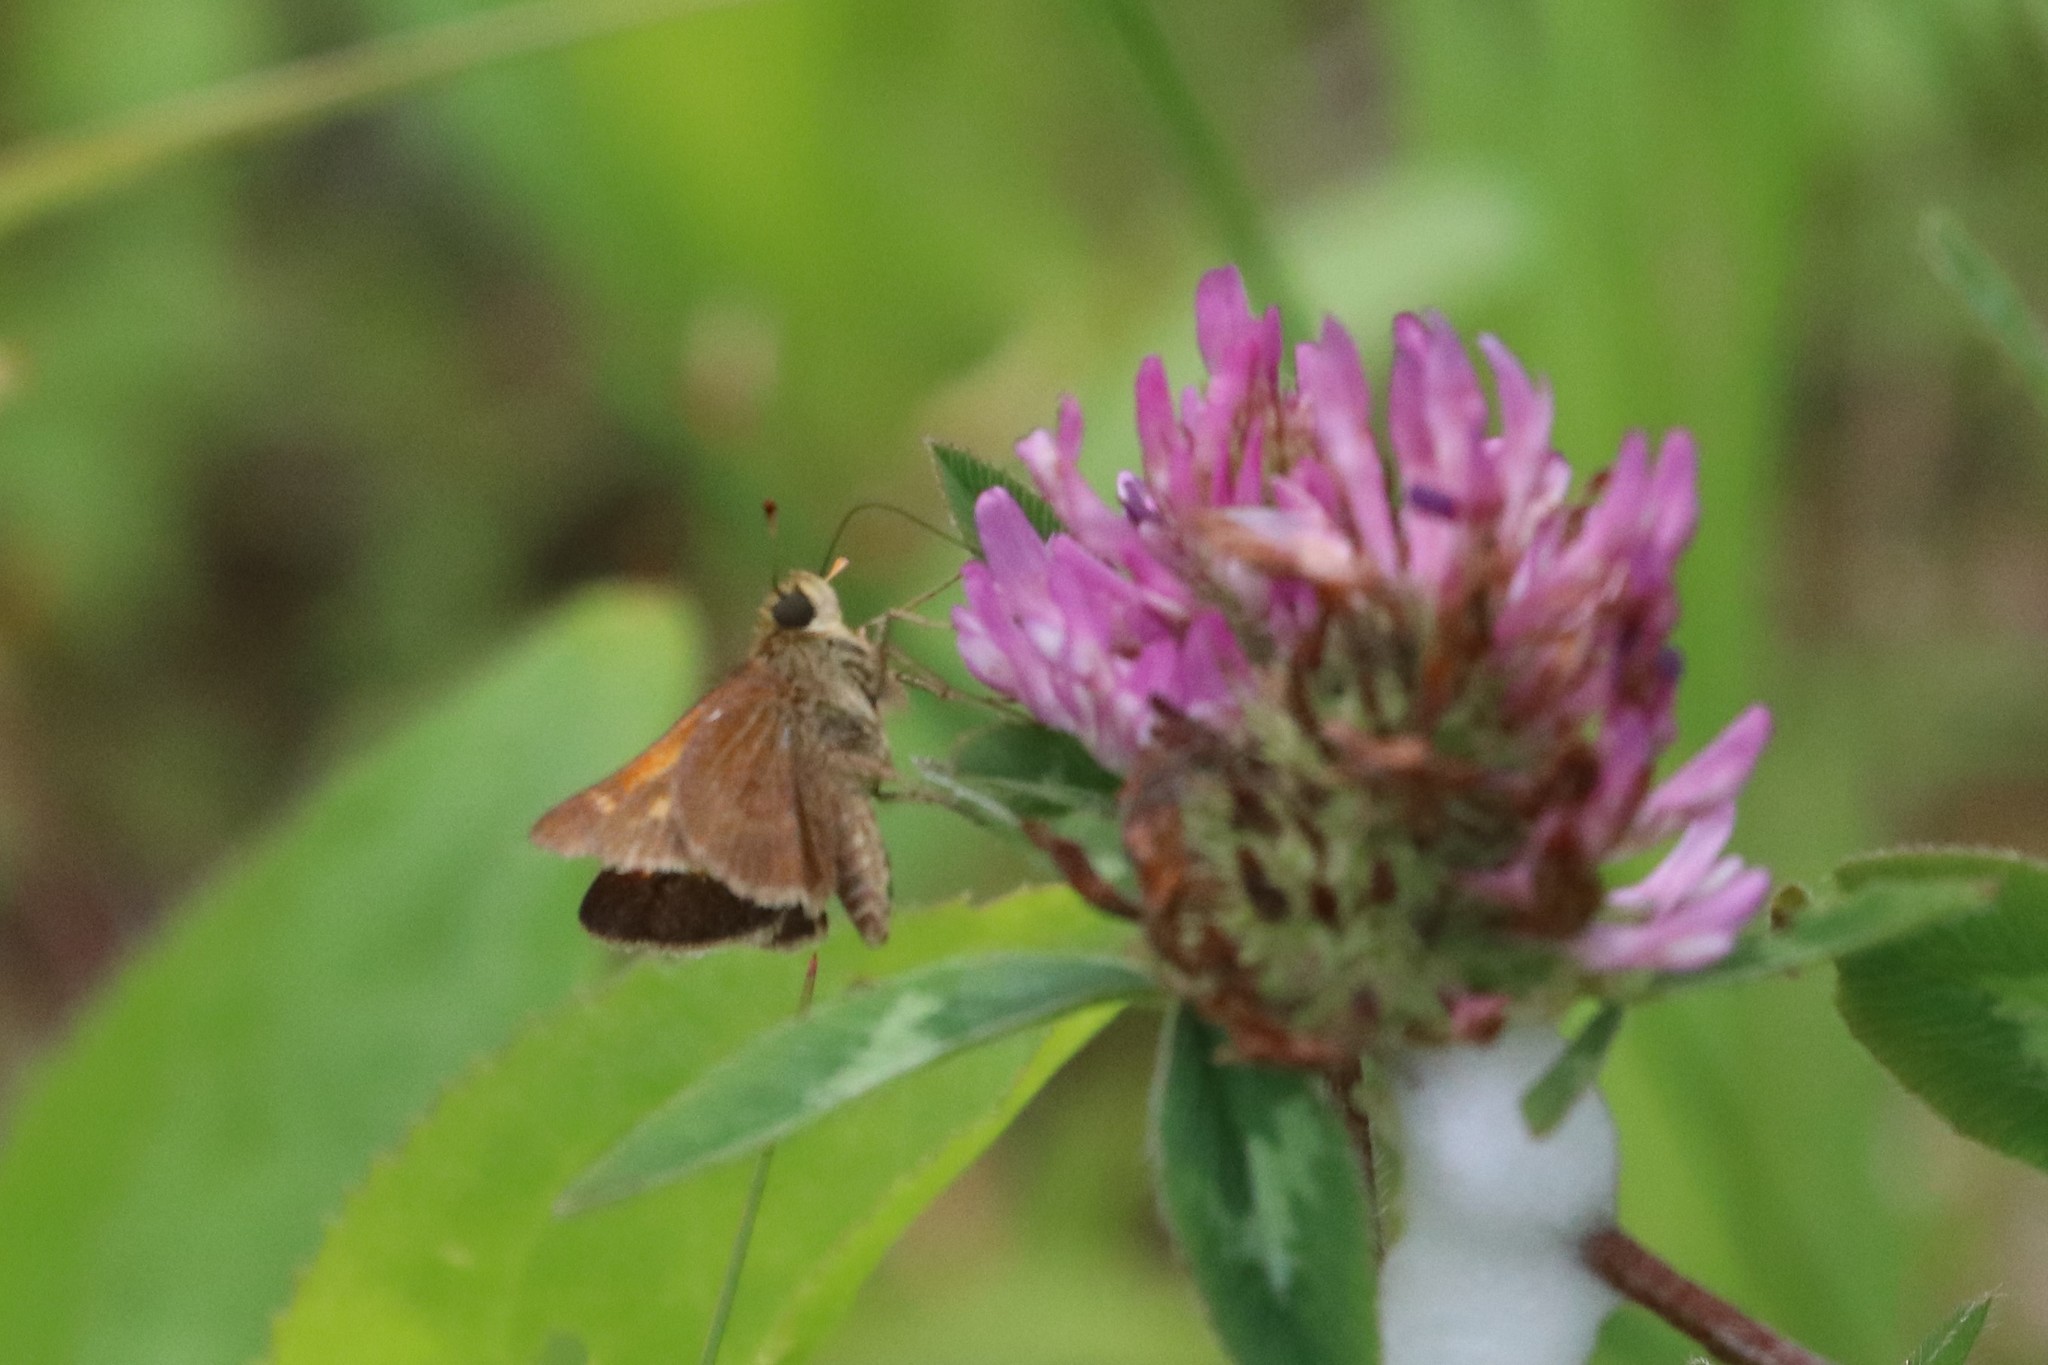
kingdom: Animalia
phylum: Arthropoda
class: Insecta
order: Lepidoptera
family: Hesperiidae
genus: Polites
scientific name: Polites themistocles
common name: Tawny-edged skipper
